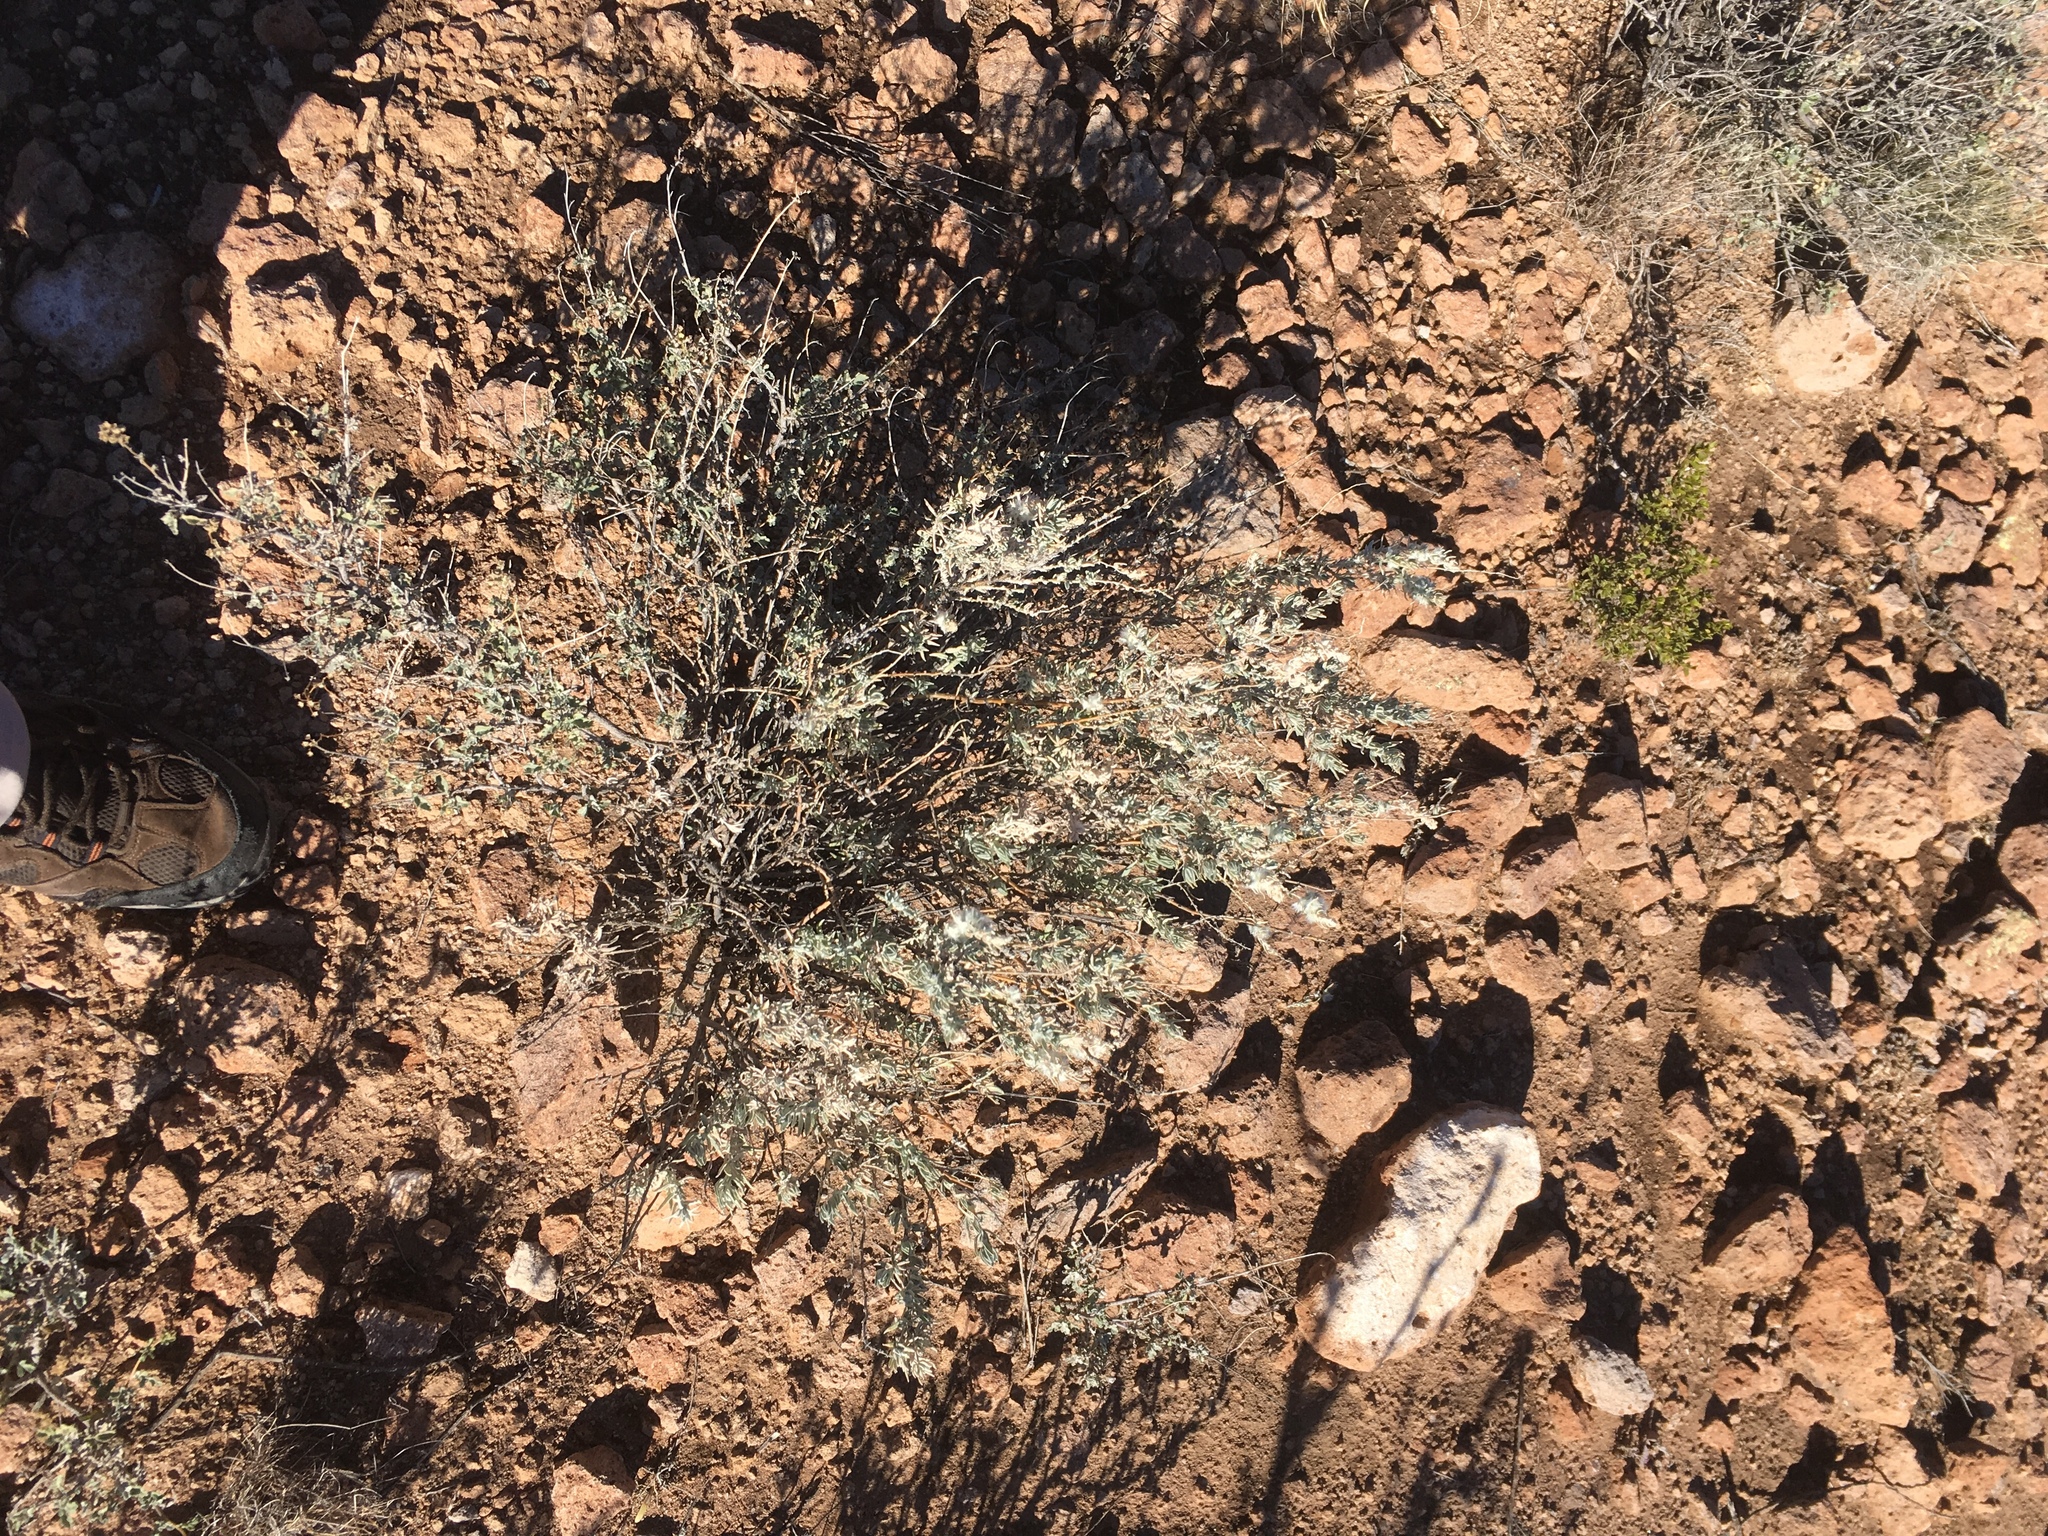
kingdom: Plantae
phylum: Tracheophyta
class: Magnoliopsida
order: Caryophyllales
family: Amaranthaceae
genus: Krascheninnikovia
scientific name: Krascheninnikovia lanata
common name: Winterfat
